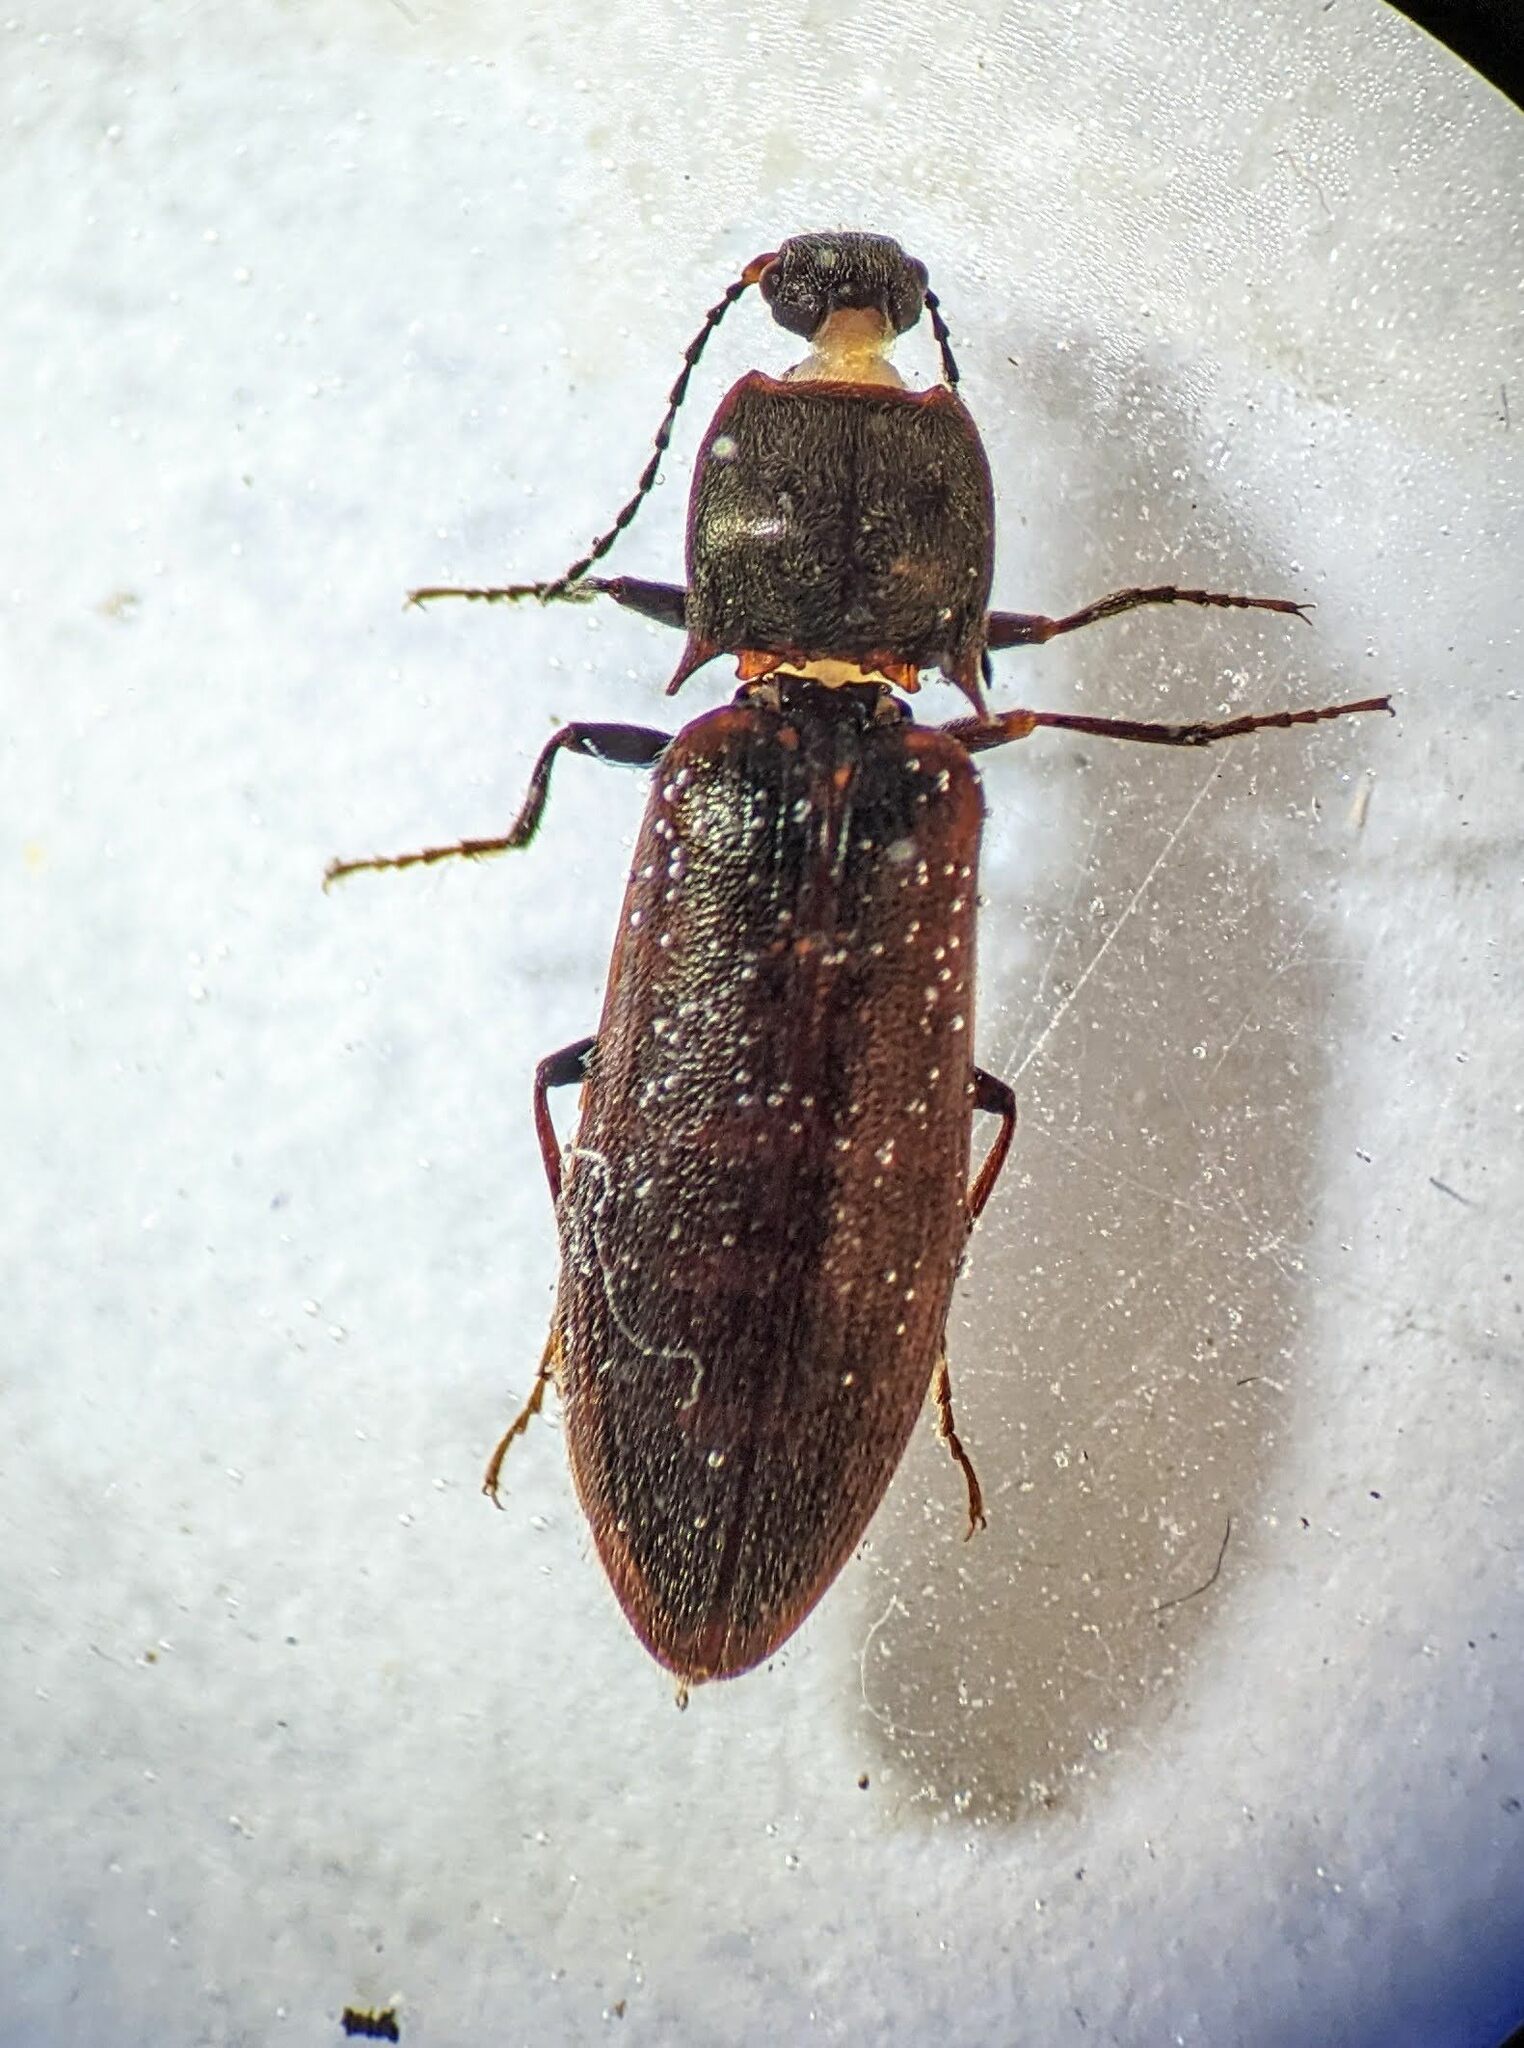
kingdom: Animalia
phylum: Arthropoda
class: Insecta
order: Coleoptera
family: Elateridae
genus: Metanomus
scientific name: Metanomus insidiosus
